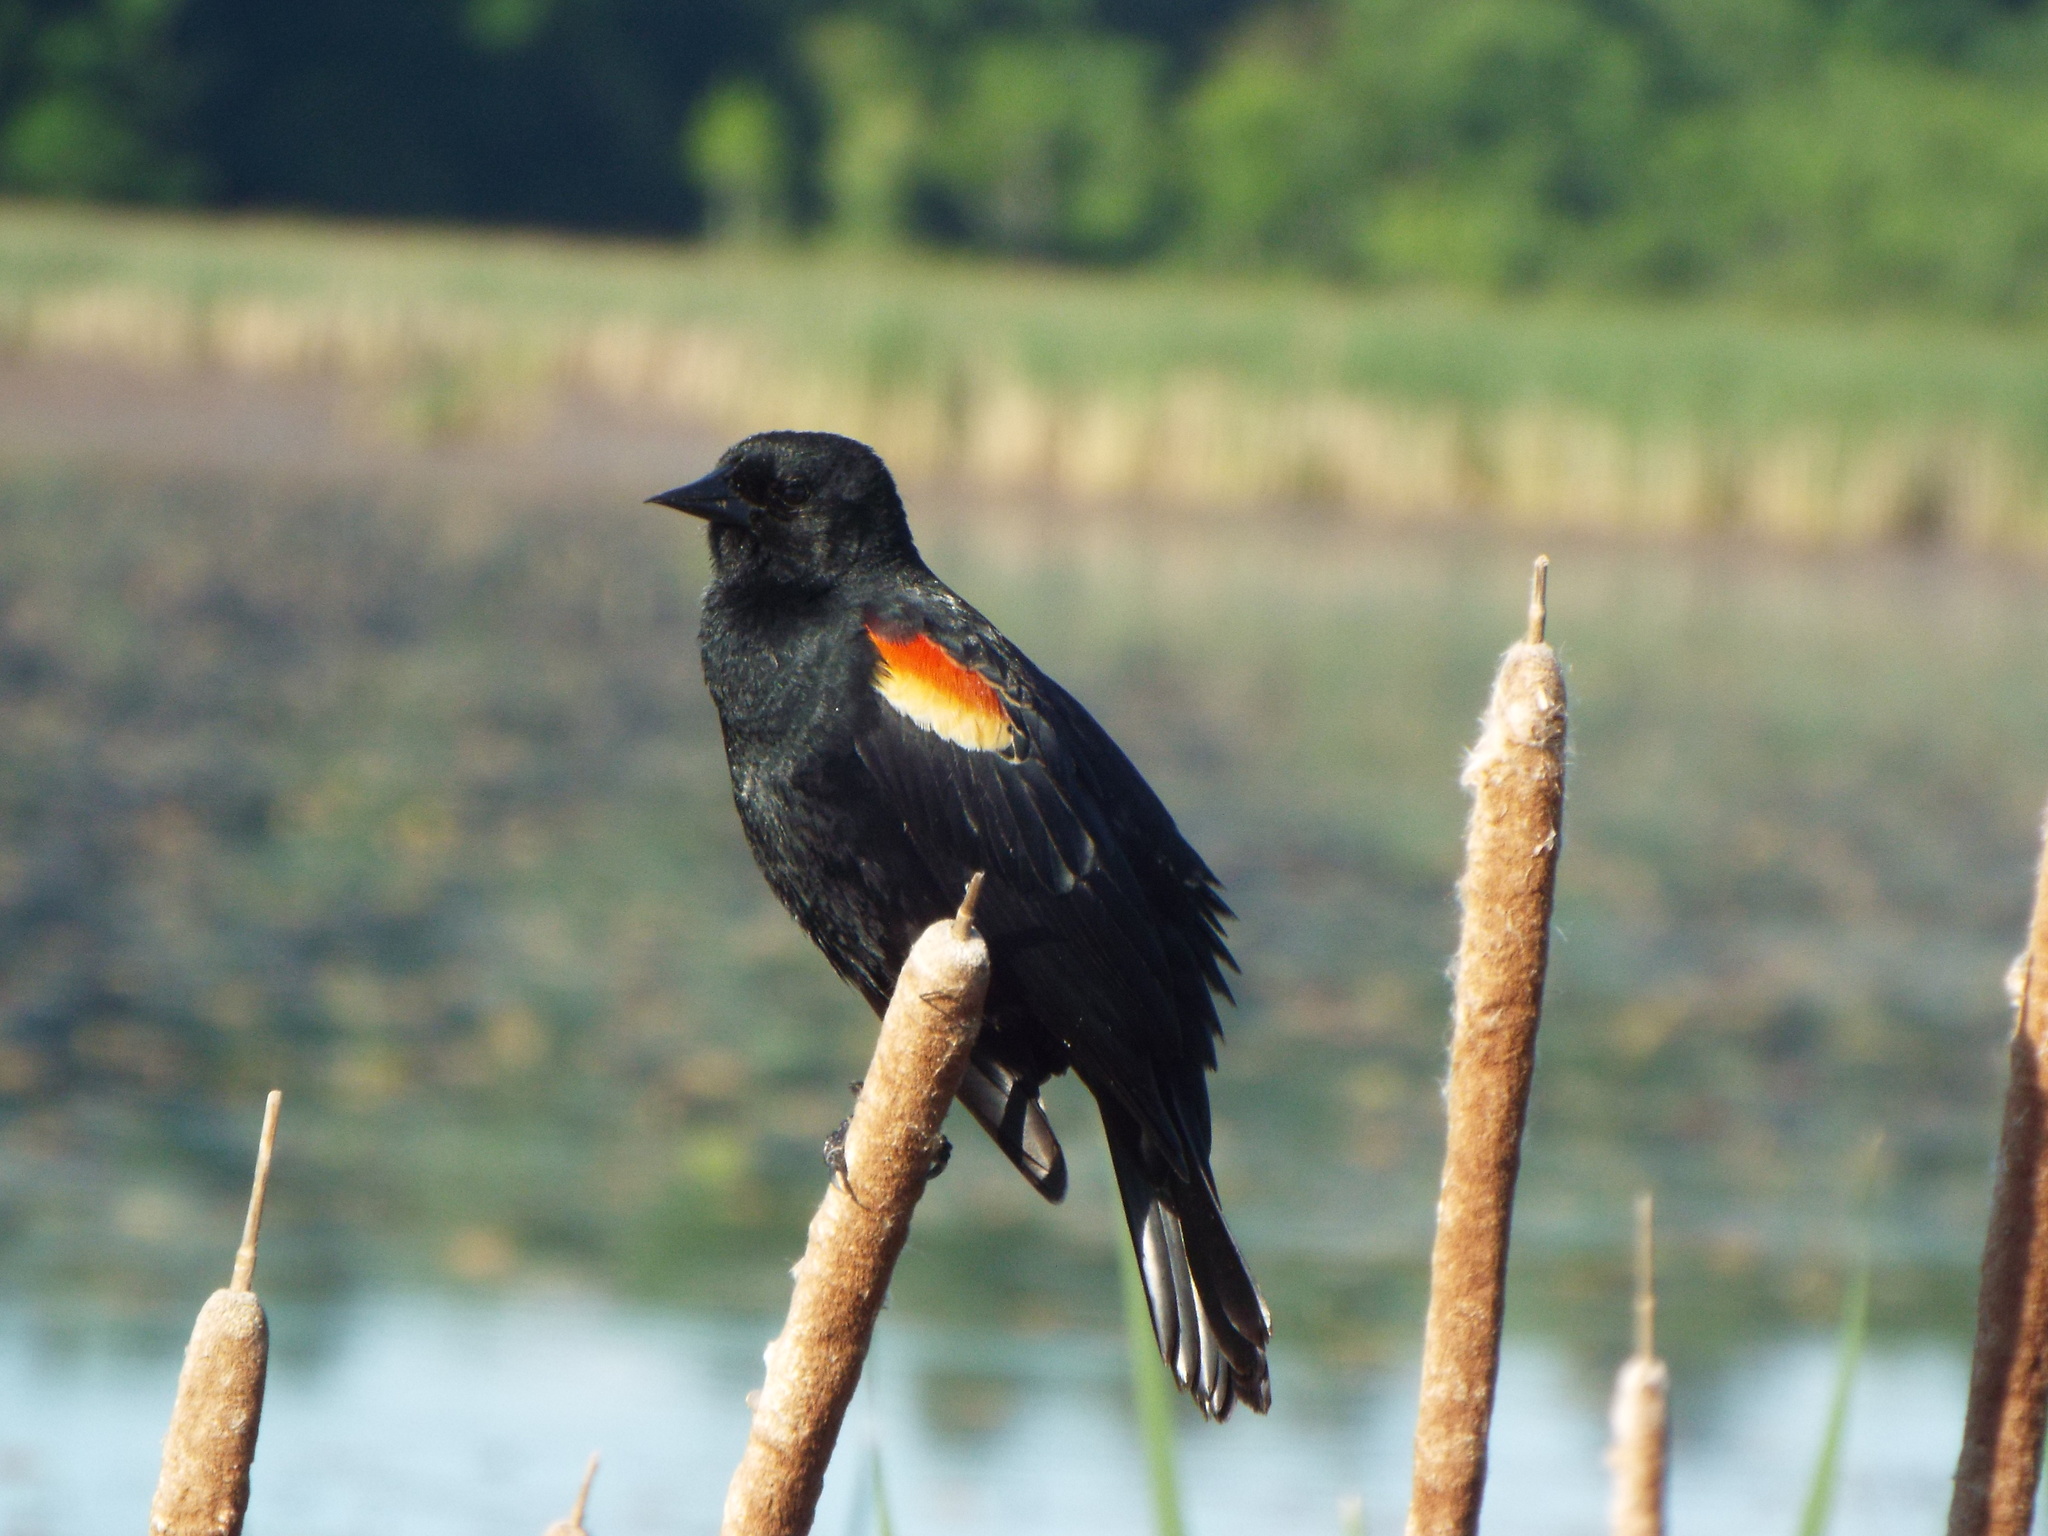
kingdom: Animalia
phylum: Chordata
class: Aves
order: Passeriformes
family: Icteridae
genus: Agelaius
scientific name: Agelaius phoeniceus
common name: Red-winged blackbird
